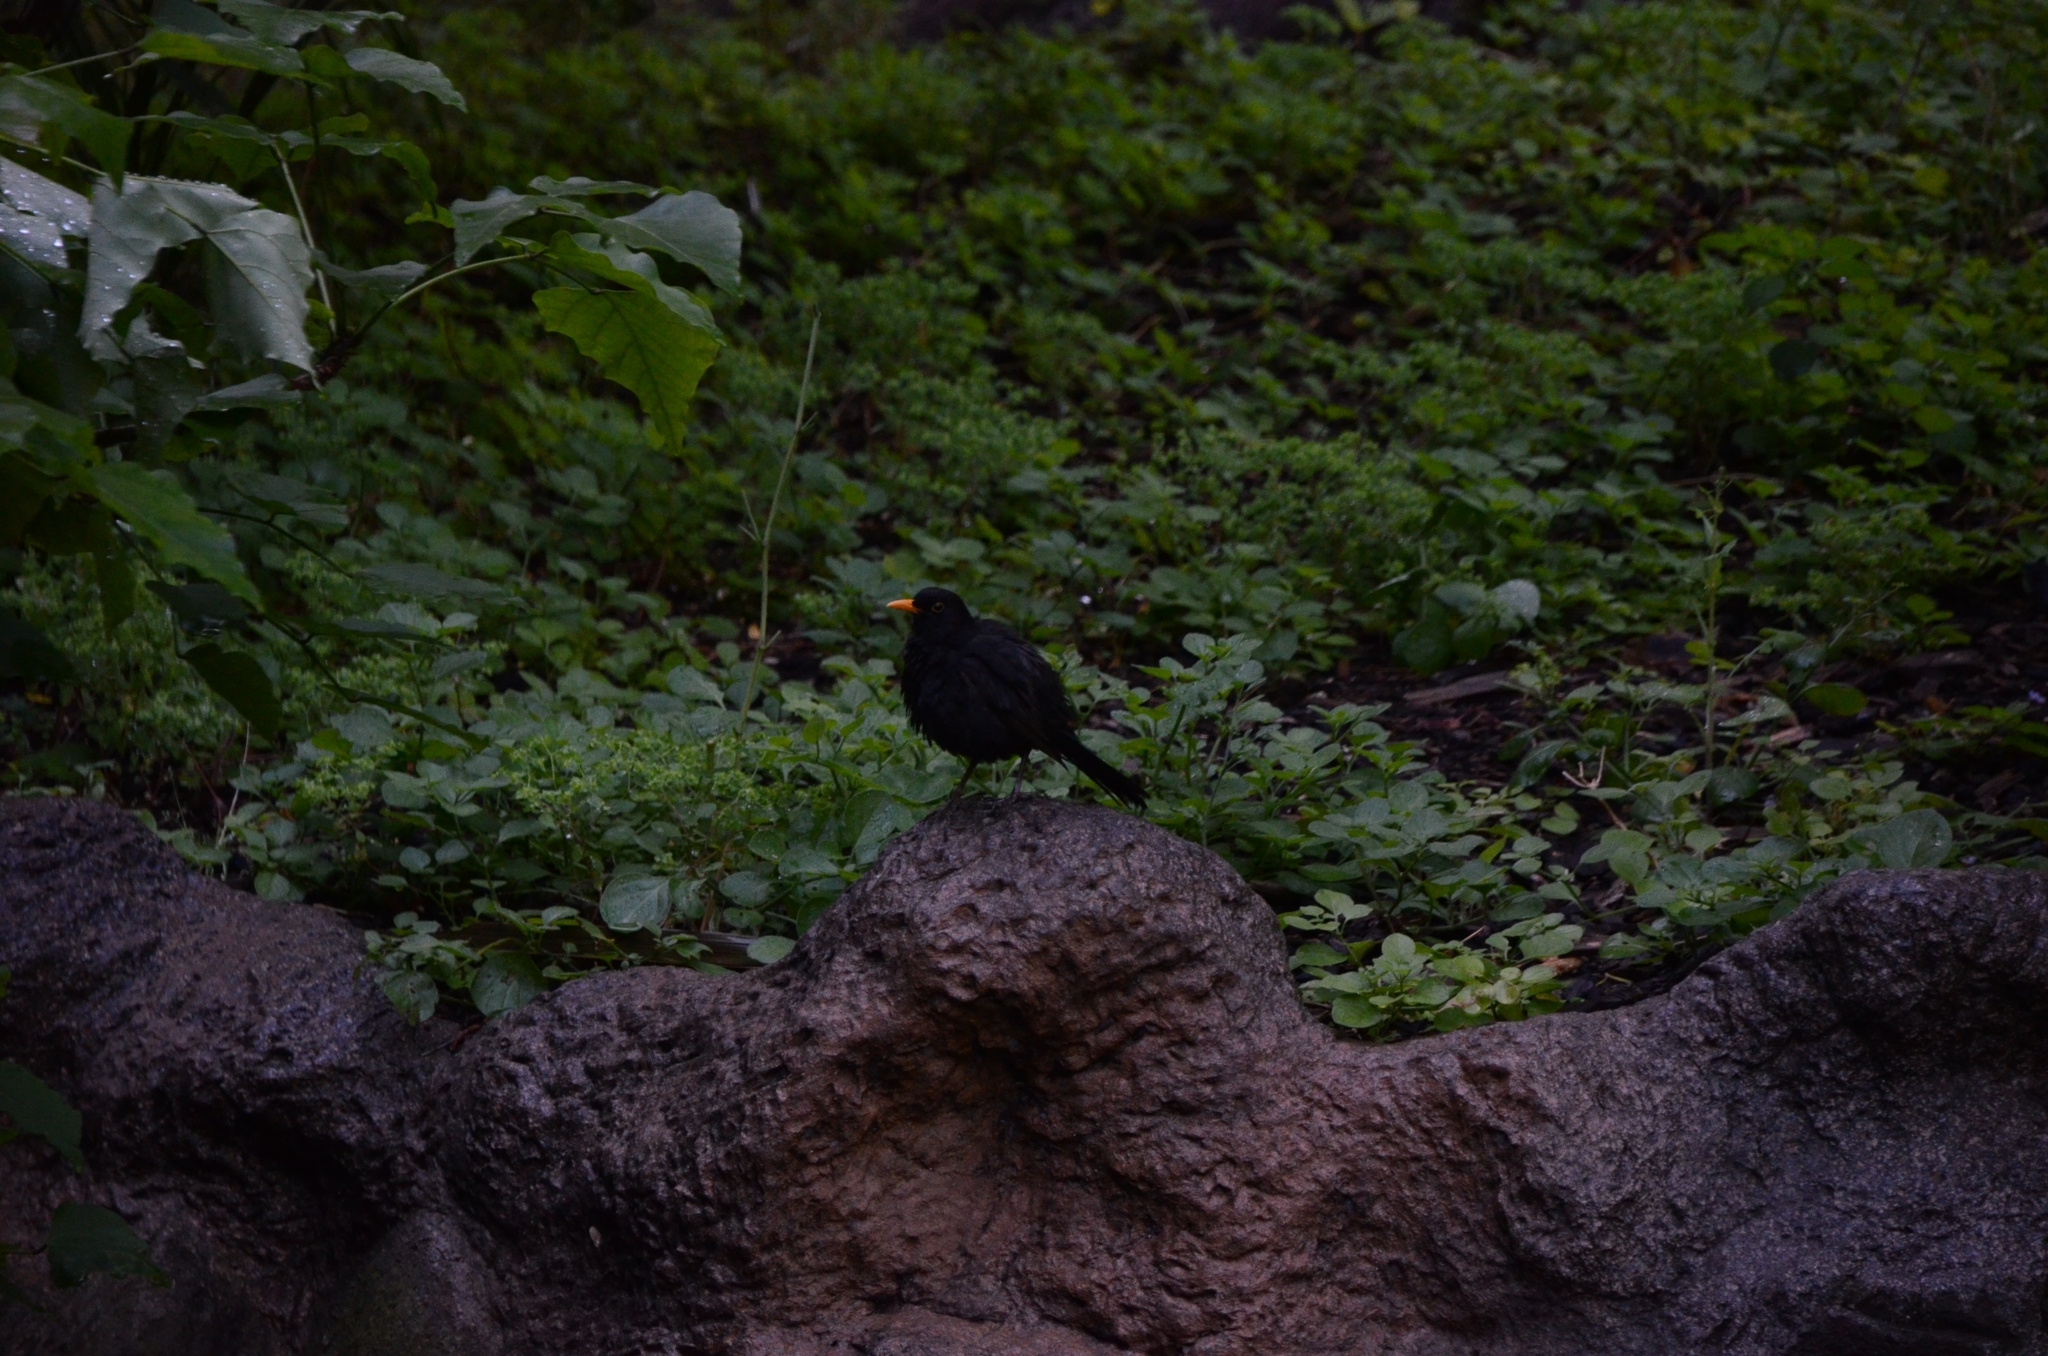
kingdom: Animalia
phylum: Chordata
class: Aves
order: Passeriformes
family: Turdidae
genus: Turdus
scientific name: Turdus merula
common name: Common blackbird
